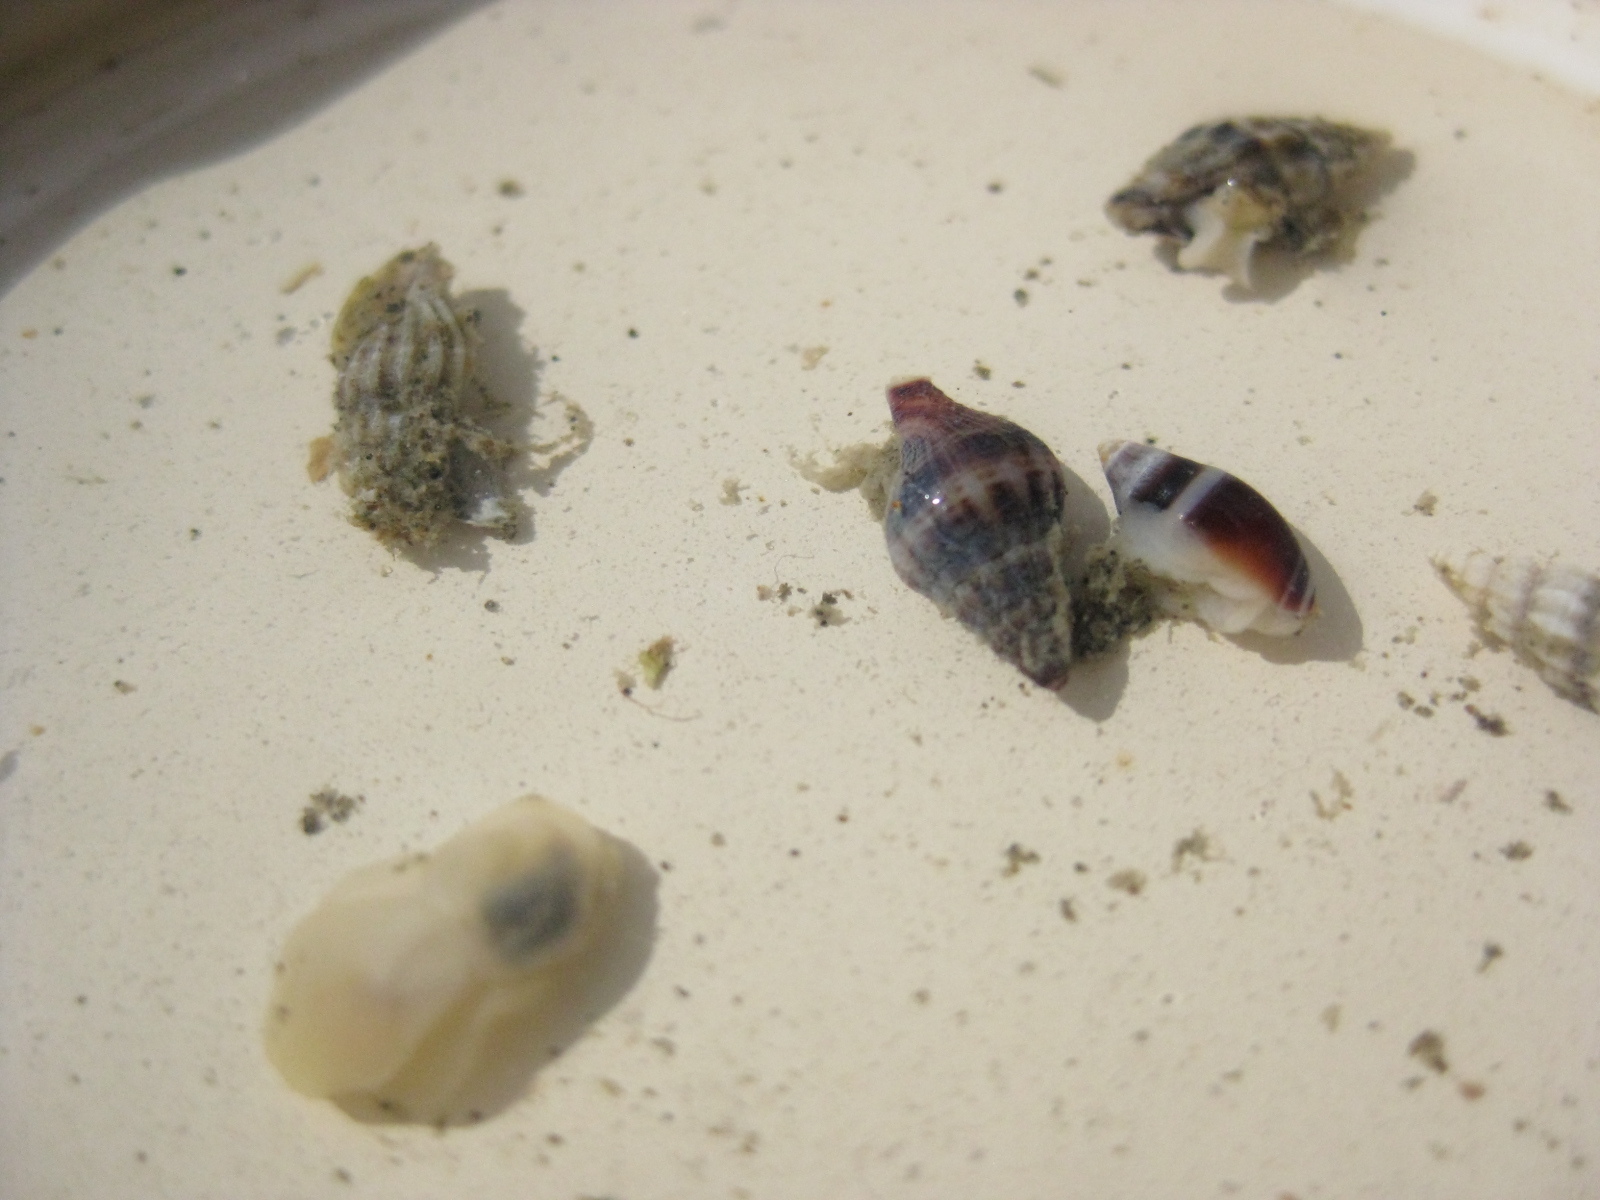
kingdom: Animalia
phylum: Mollusca
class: Gastropoda
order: Neogastropoda
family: Ancillariidae
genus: Amalda
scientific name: Amalda australis
